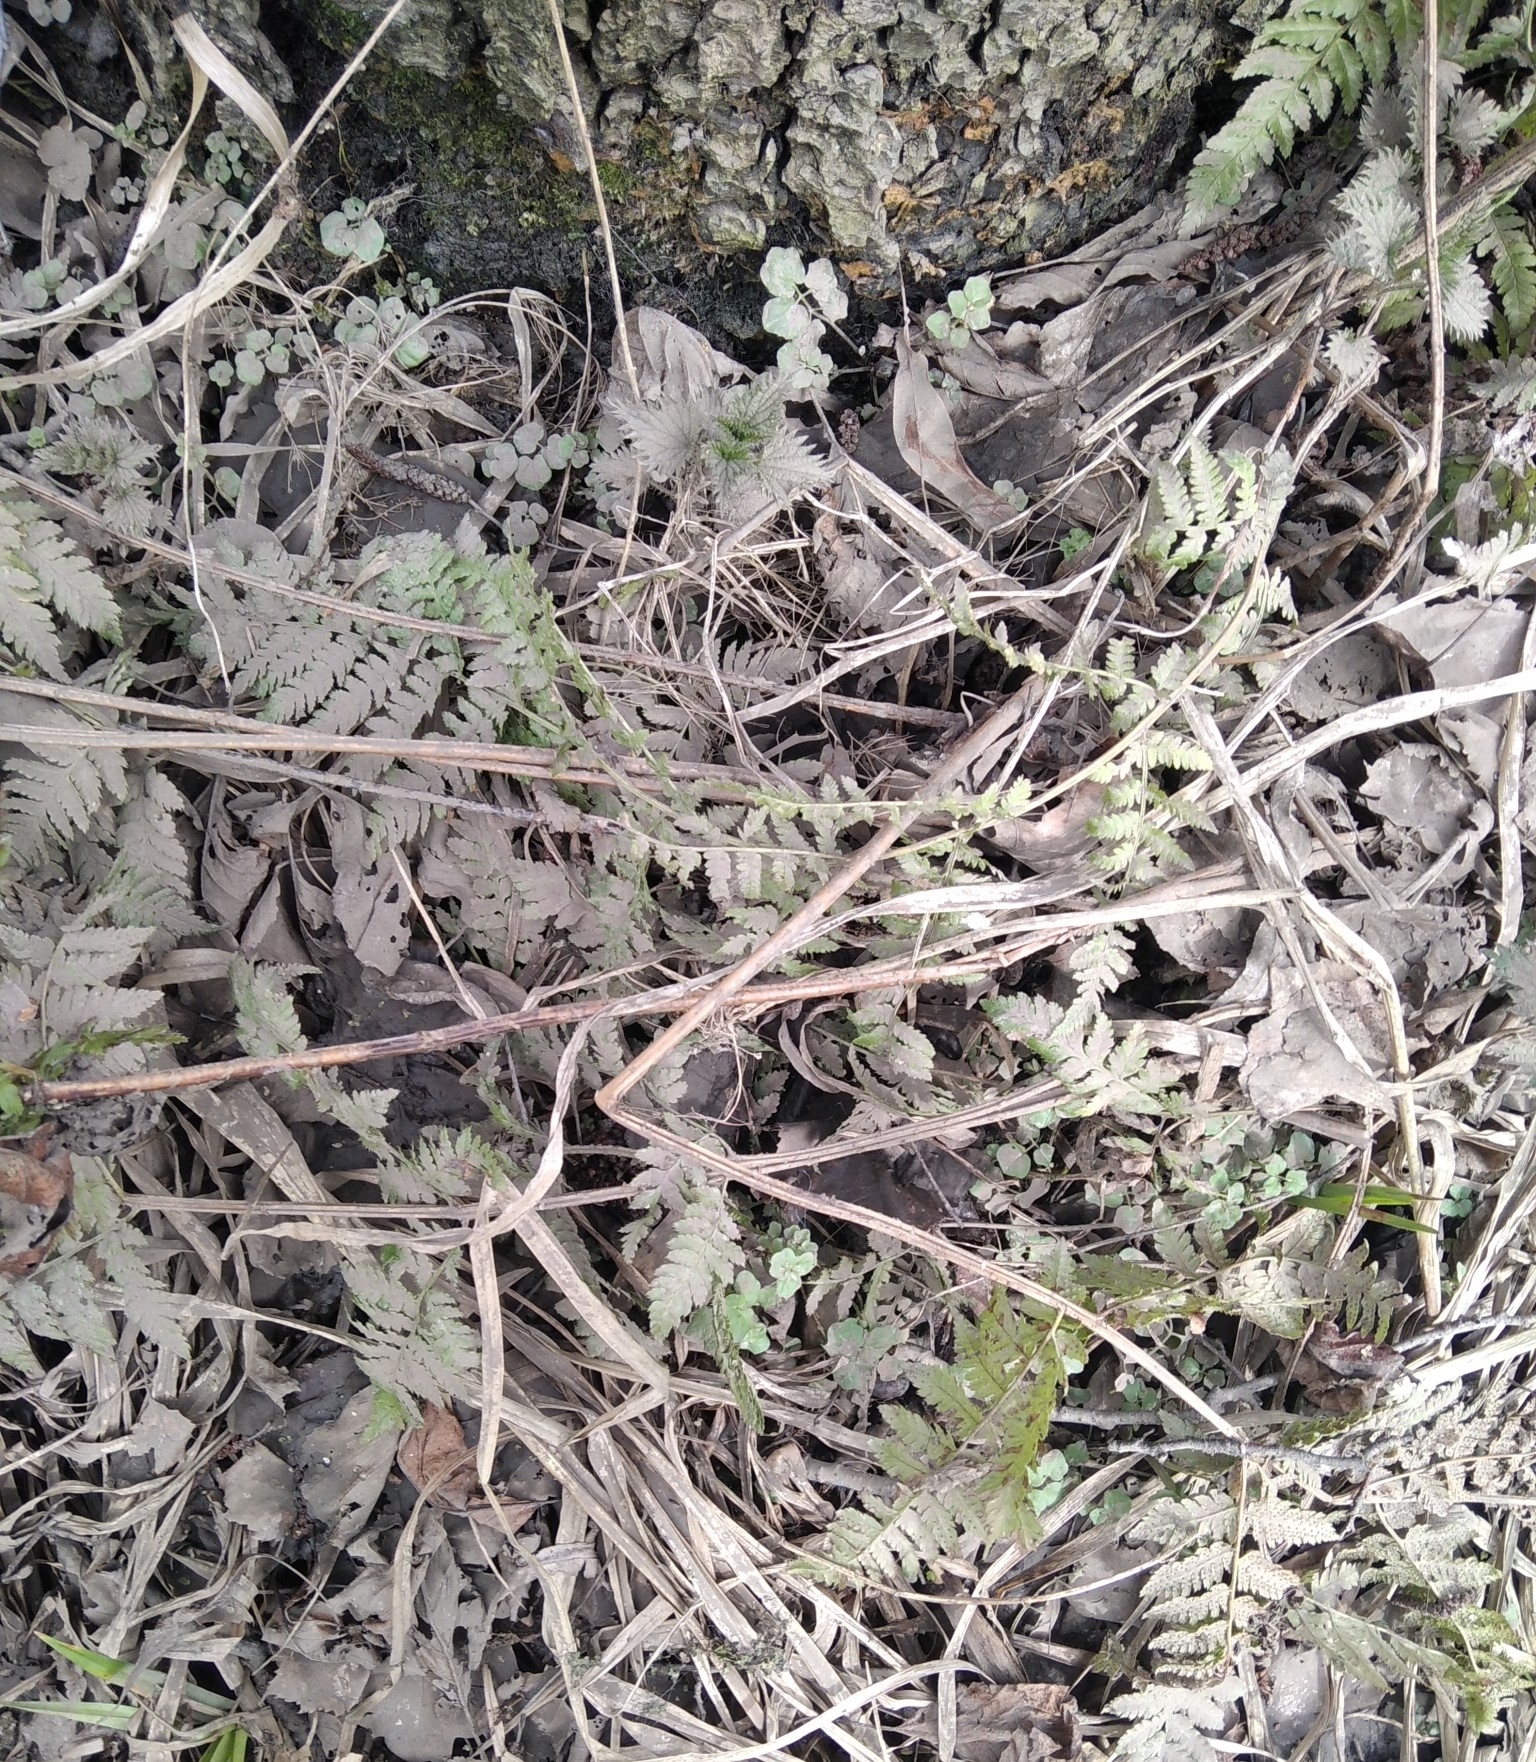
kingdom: Plantae
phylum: Tracheophyta
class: Polypodiopsida
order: Polypodiales
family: Dryopteridaceae
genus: Dryopteris
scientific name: Dryopteris carthusiana
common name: Narrow buckler-fern
